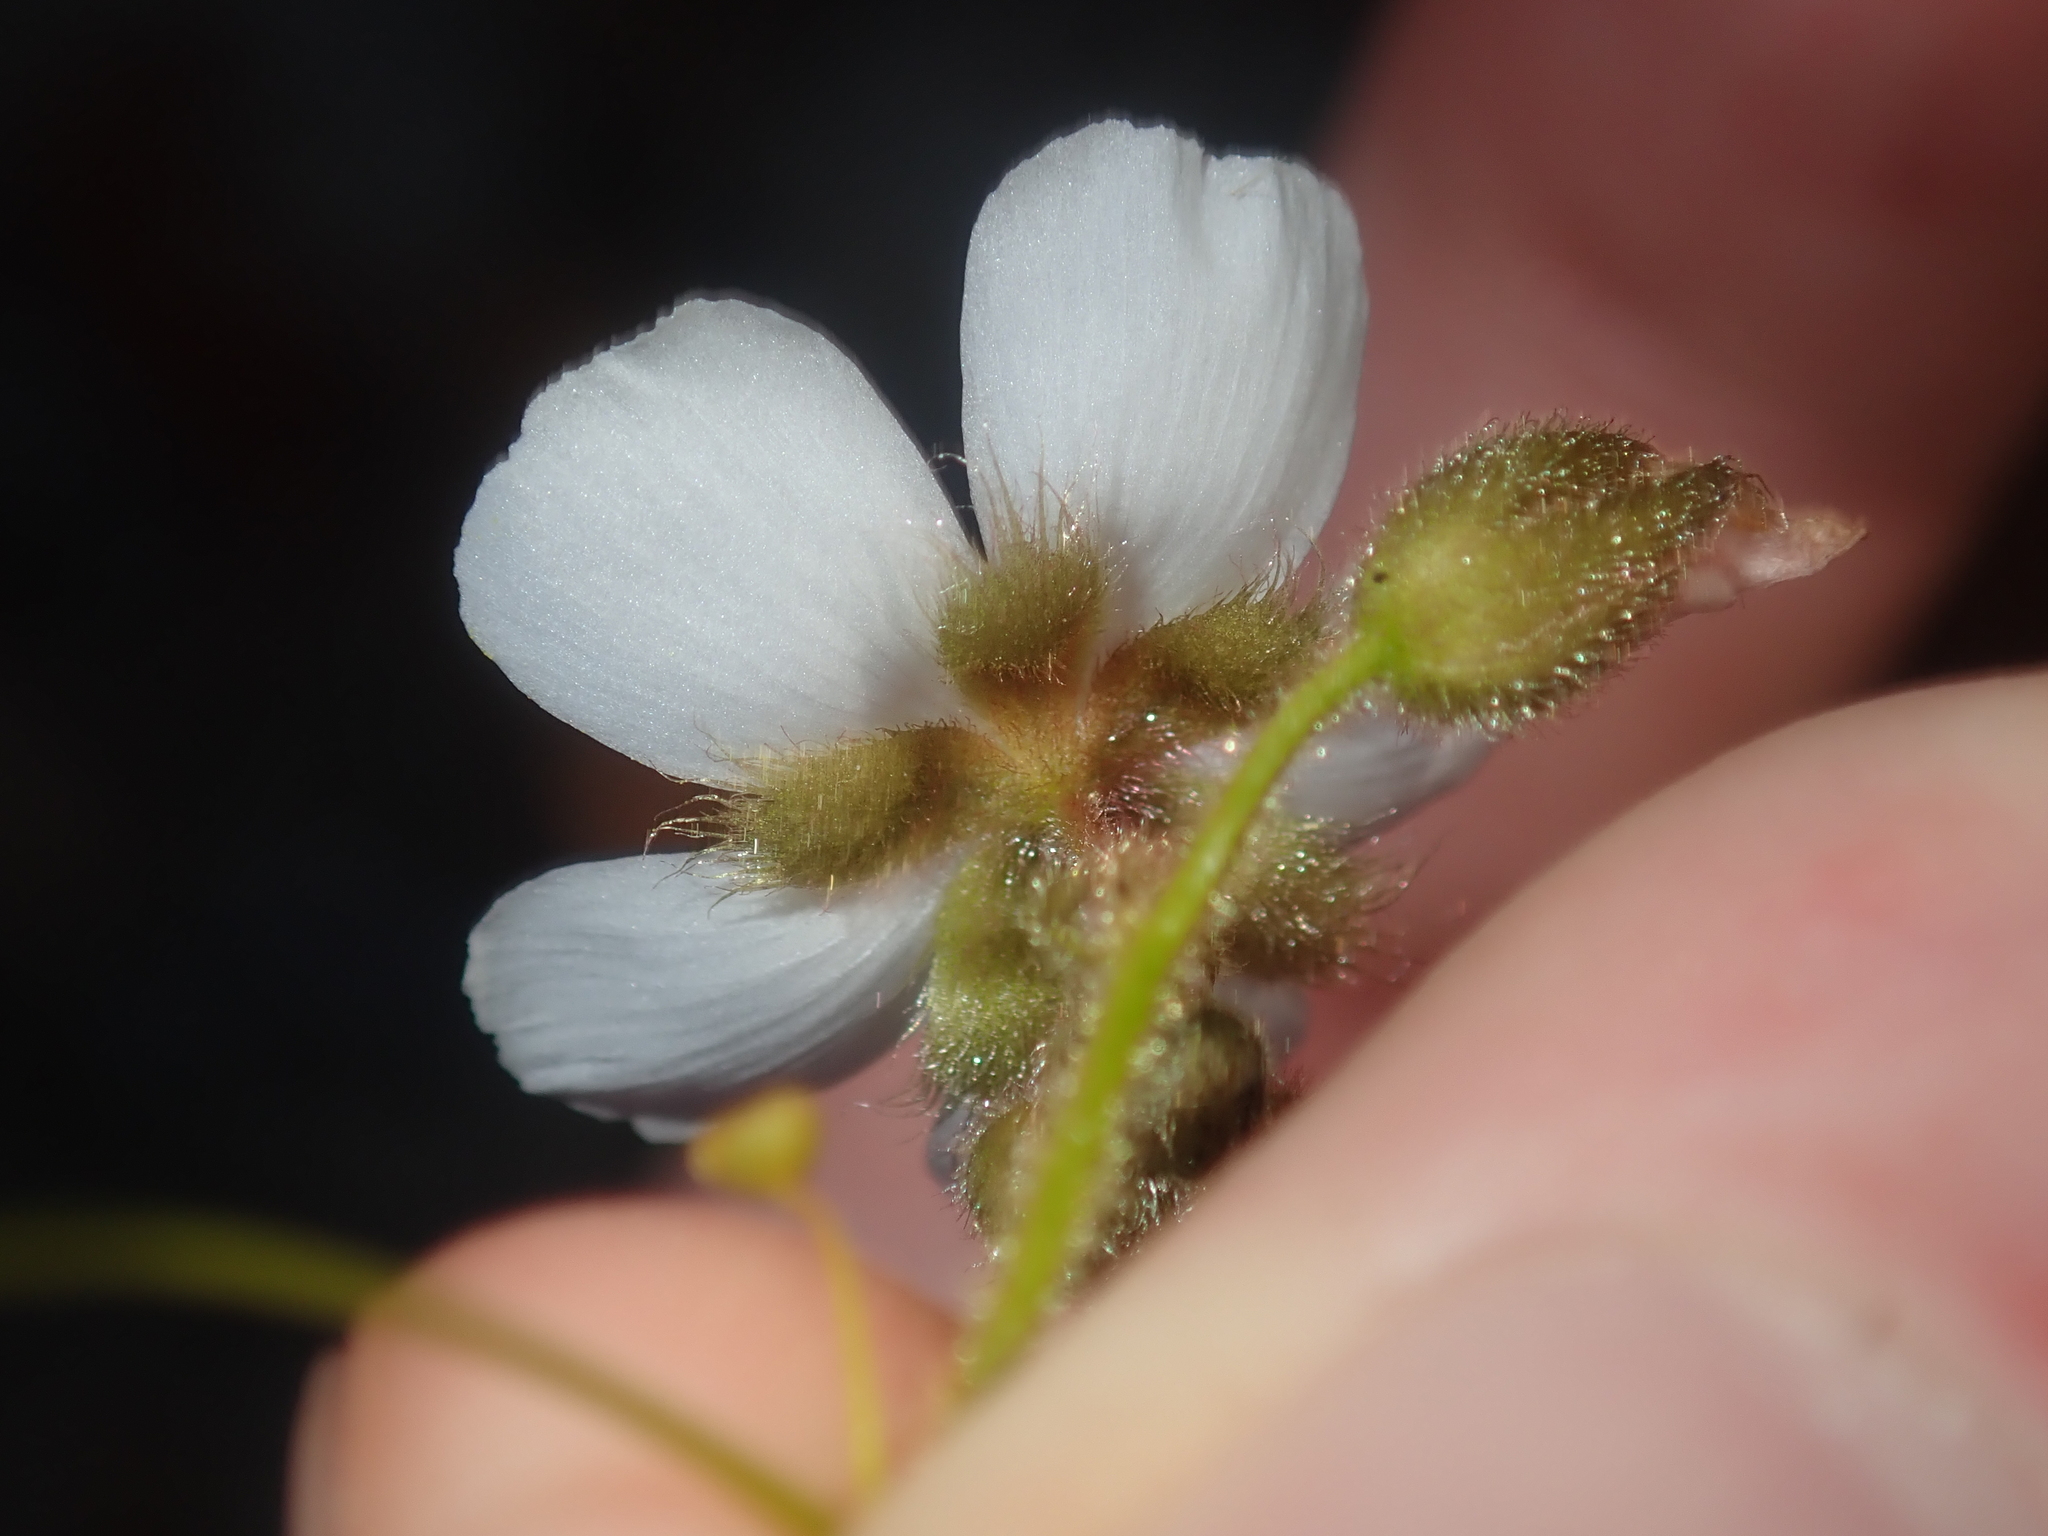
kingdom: Plantae
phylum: Tracheophyta
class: Magnoliopsida
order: Caryophyllales
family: Droseraceae
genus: Drosera
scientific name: Drosera hirsuta
